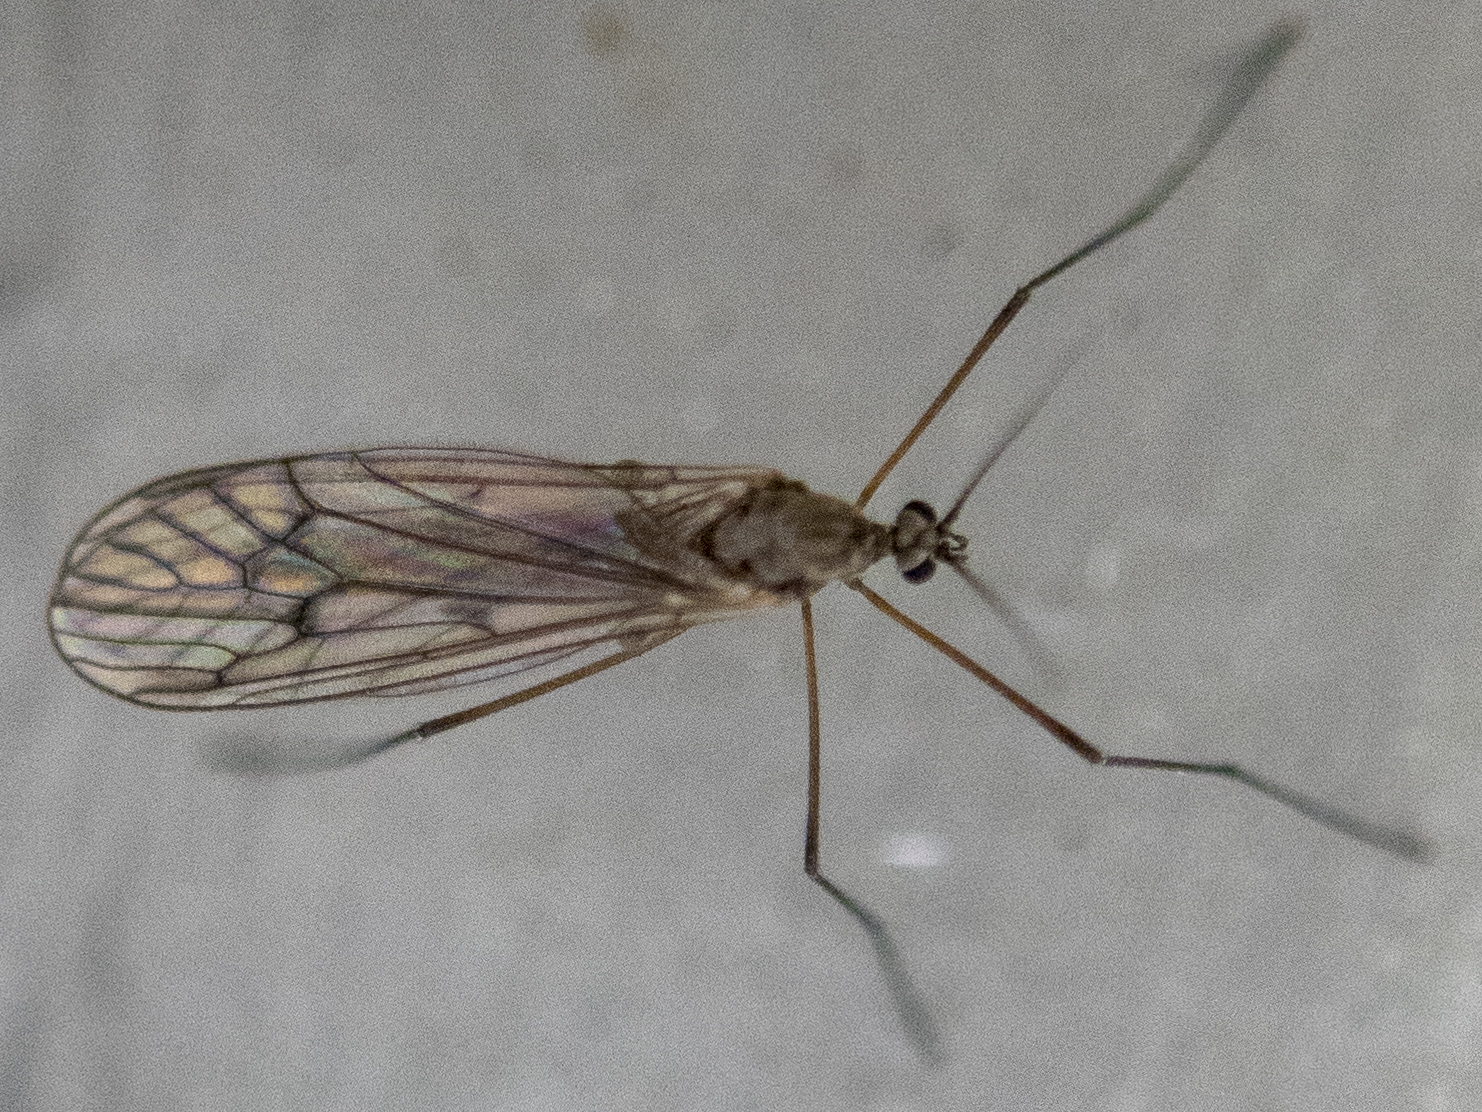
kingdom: Animalia
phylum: Arthropoda
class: Insecta
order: Diptera
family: Trichoceridae
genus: Trichocera
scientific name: Trichocera bimacula
